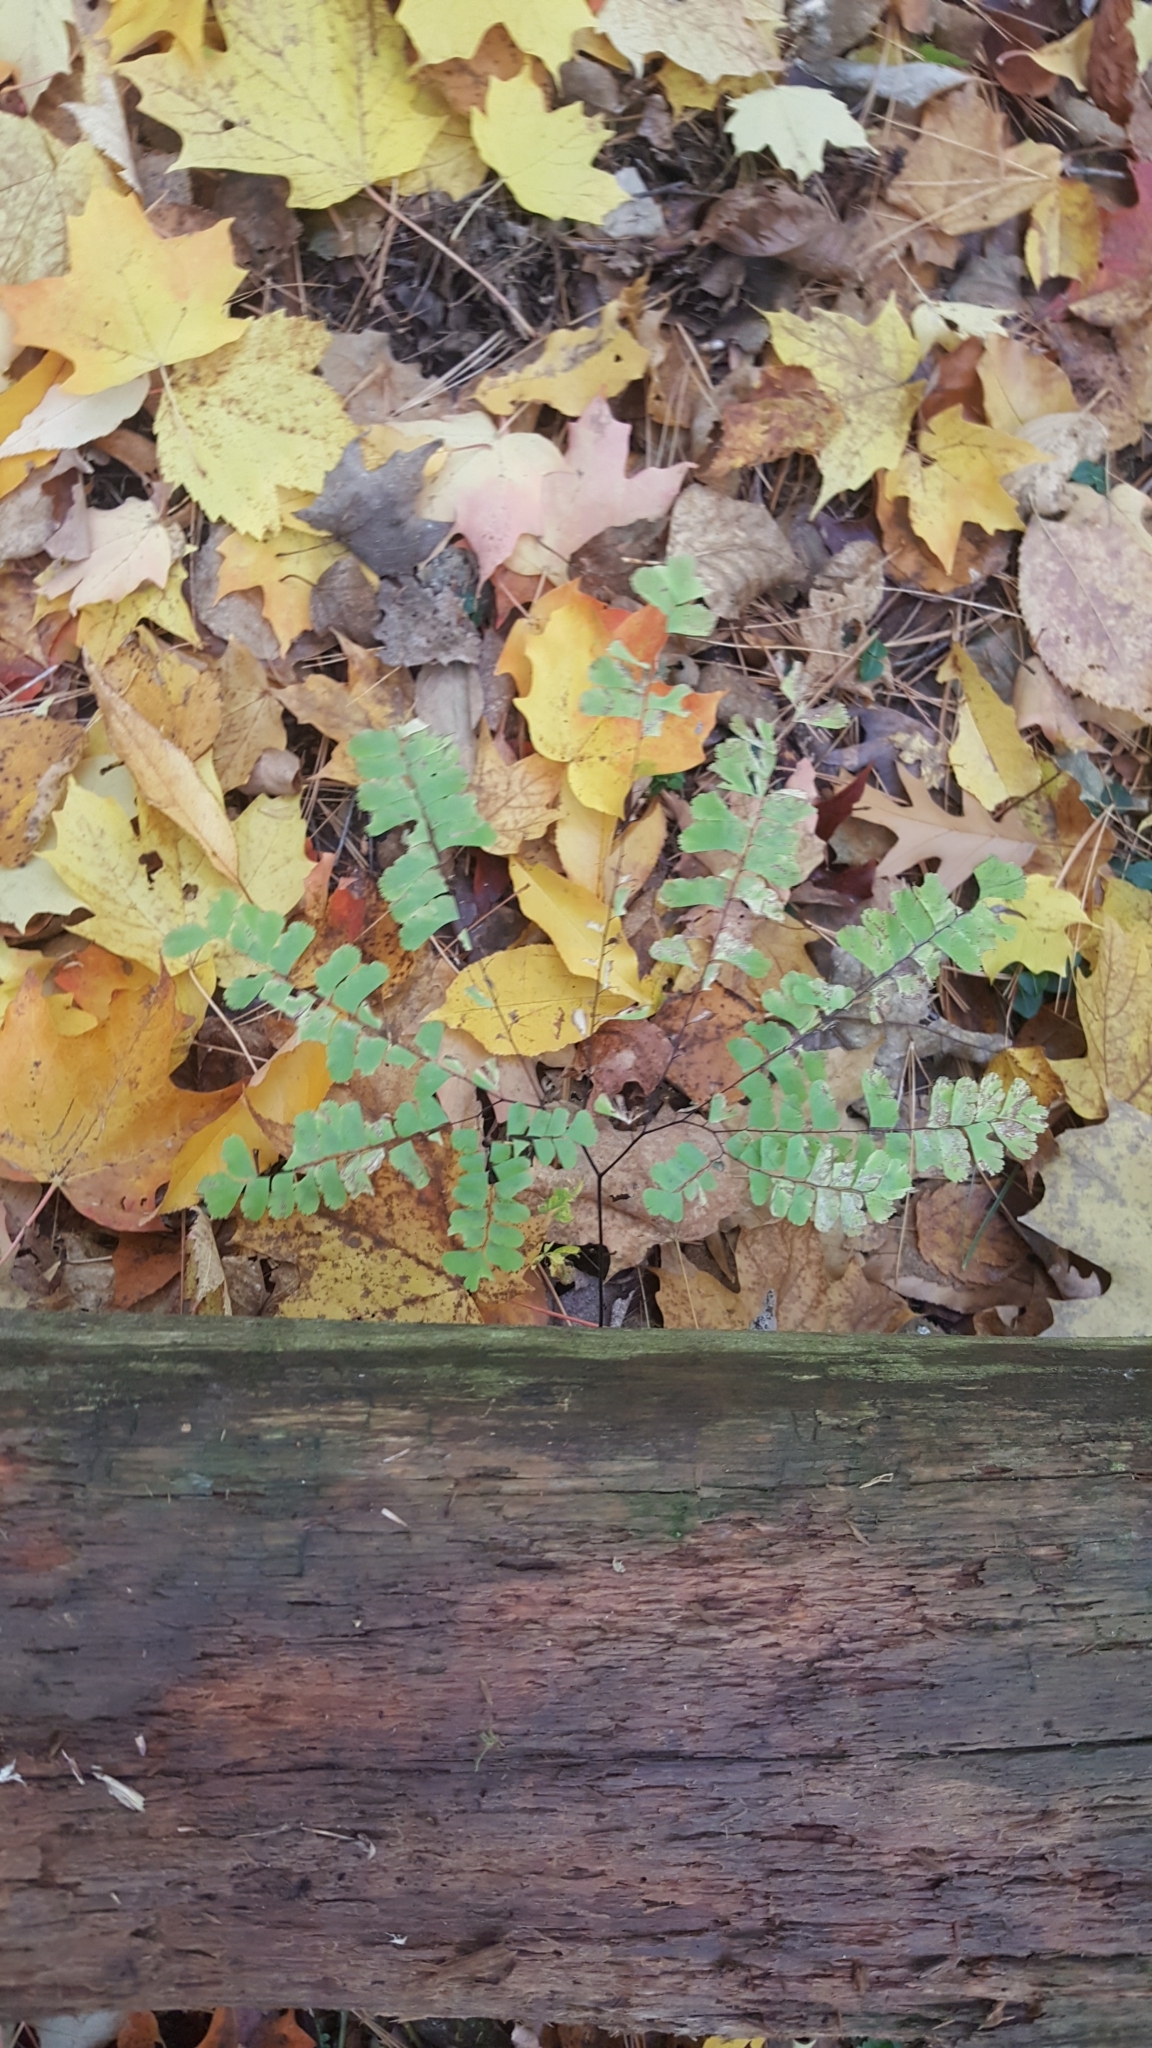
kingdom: Plantae
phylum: Tracheophyta
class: Polypodiopsida
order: Polypodiales
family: Pteridaceae
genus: Adiantum
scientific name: Adiantum pedatum
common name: Five-finger fern
